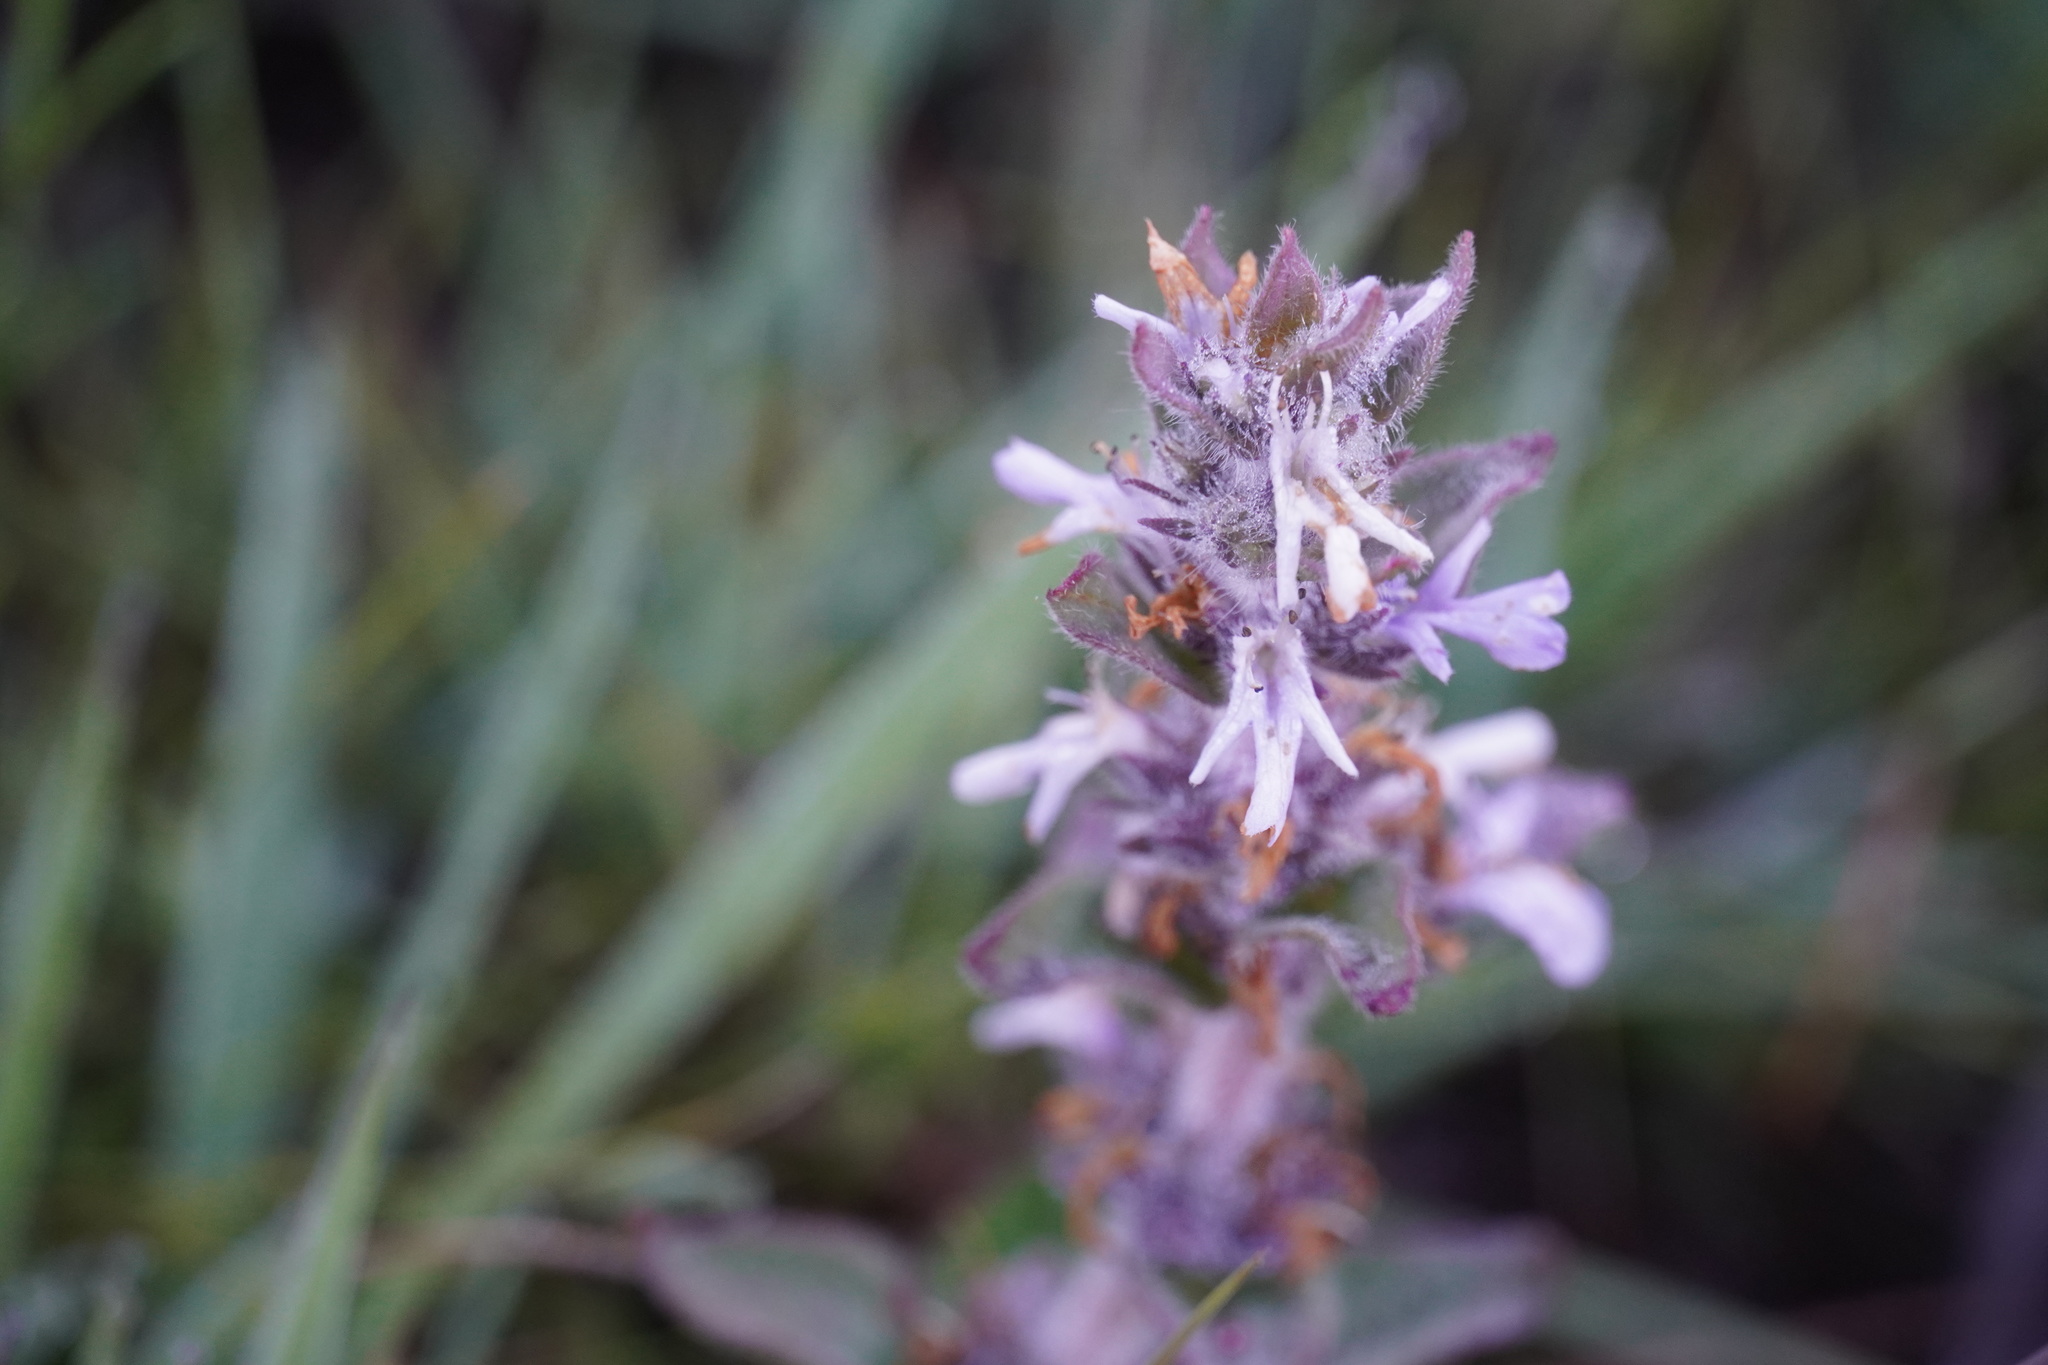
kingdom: Plantae
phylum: Tracheophyta
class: Magnoliopsida
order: Lamiales
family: Lamiaceae
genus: Ajuga
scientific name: Ajuga ophrydis
